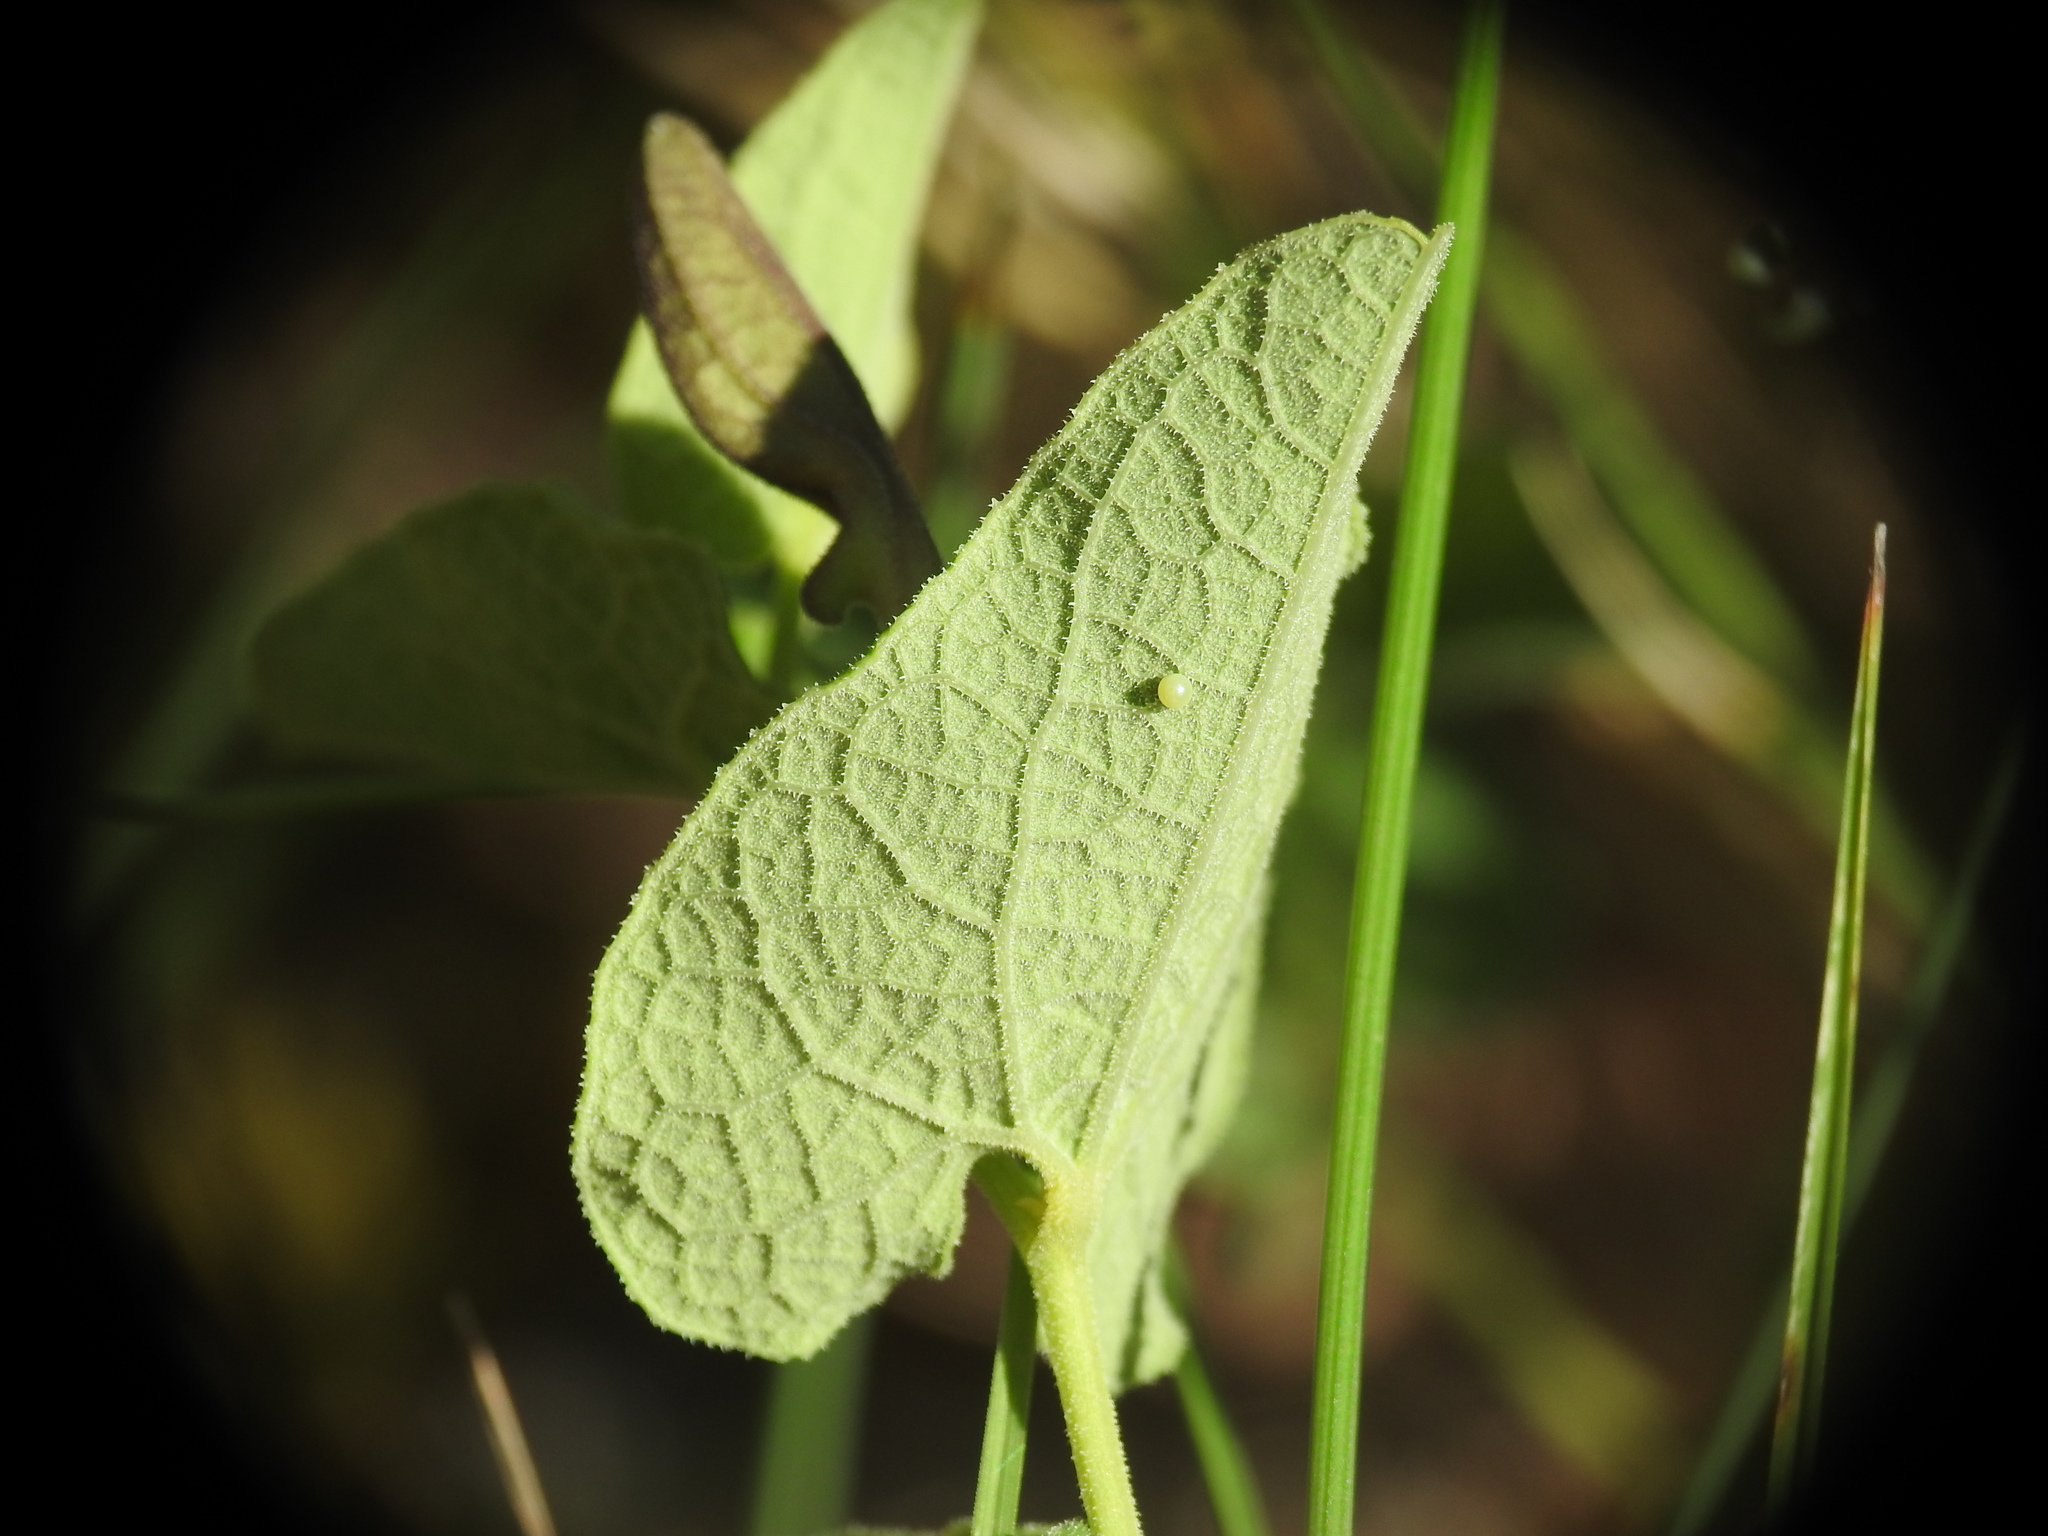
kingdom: Animalia
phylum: Arthropoda
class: Insecta
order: Lepidoptera
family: Papilionidae
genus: Zerynthia
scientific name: Zerynthia rumina
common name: Spanish festoon
